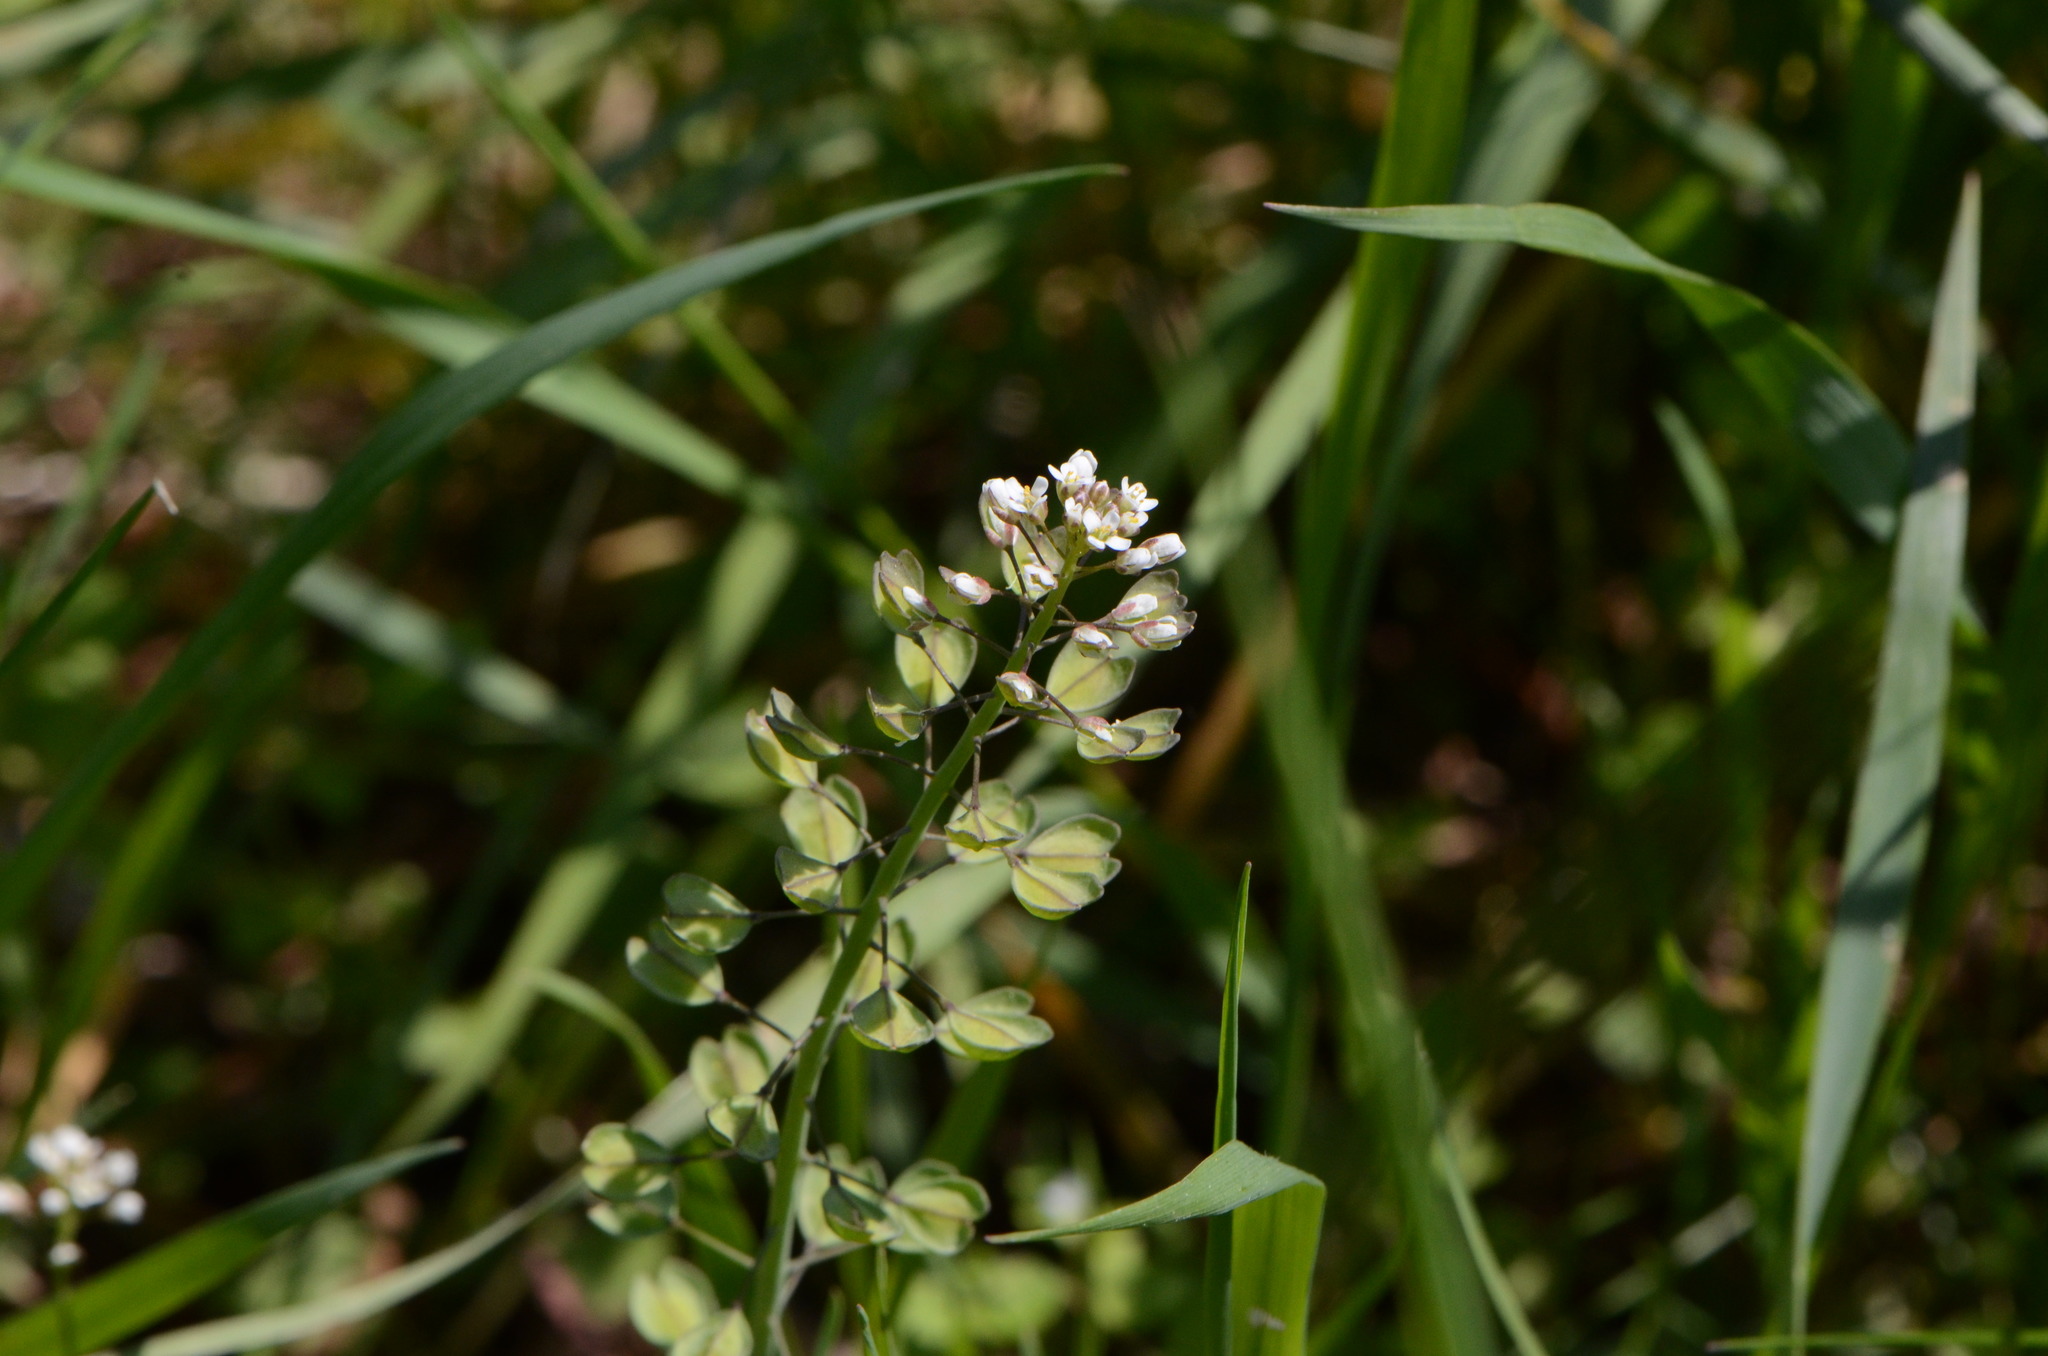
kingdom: Plantae
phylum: Tracheophyta
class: Magnoliopsida
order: Brassicales
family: Brassicaceae
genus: Noccaea
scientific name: Noccaea perfoliata
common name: Perfoliate pennycress
